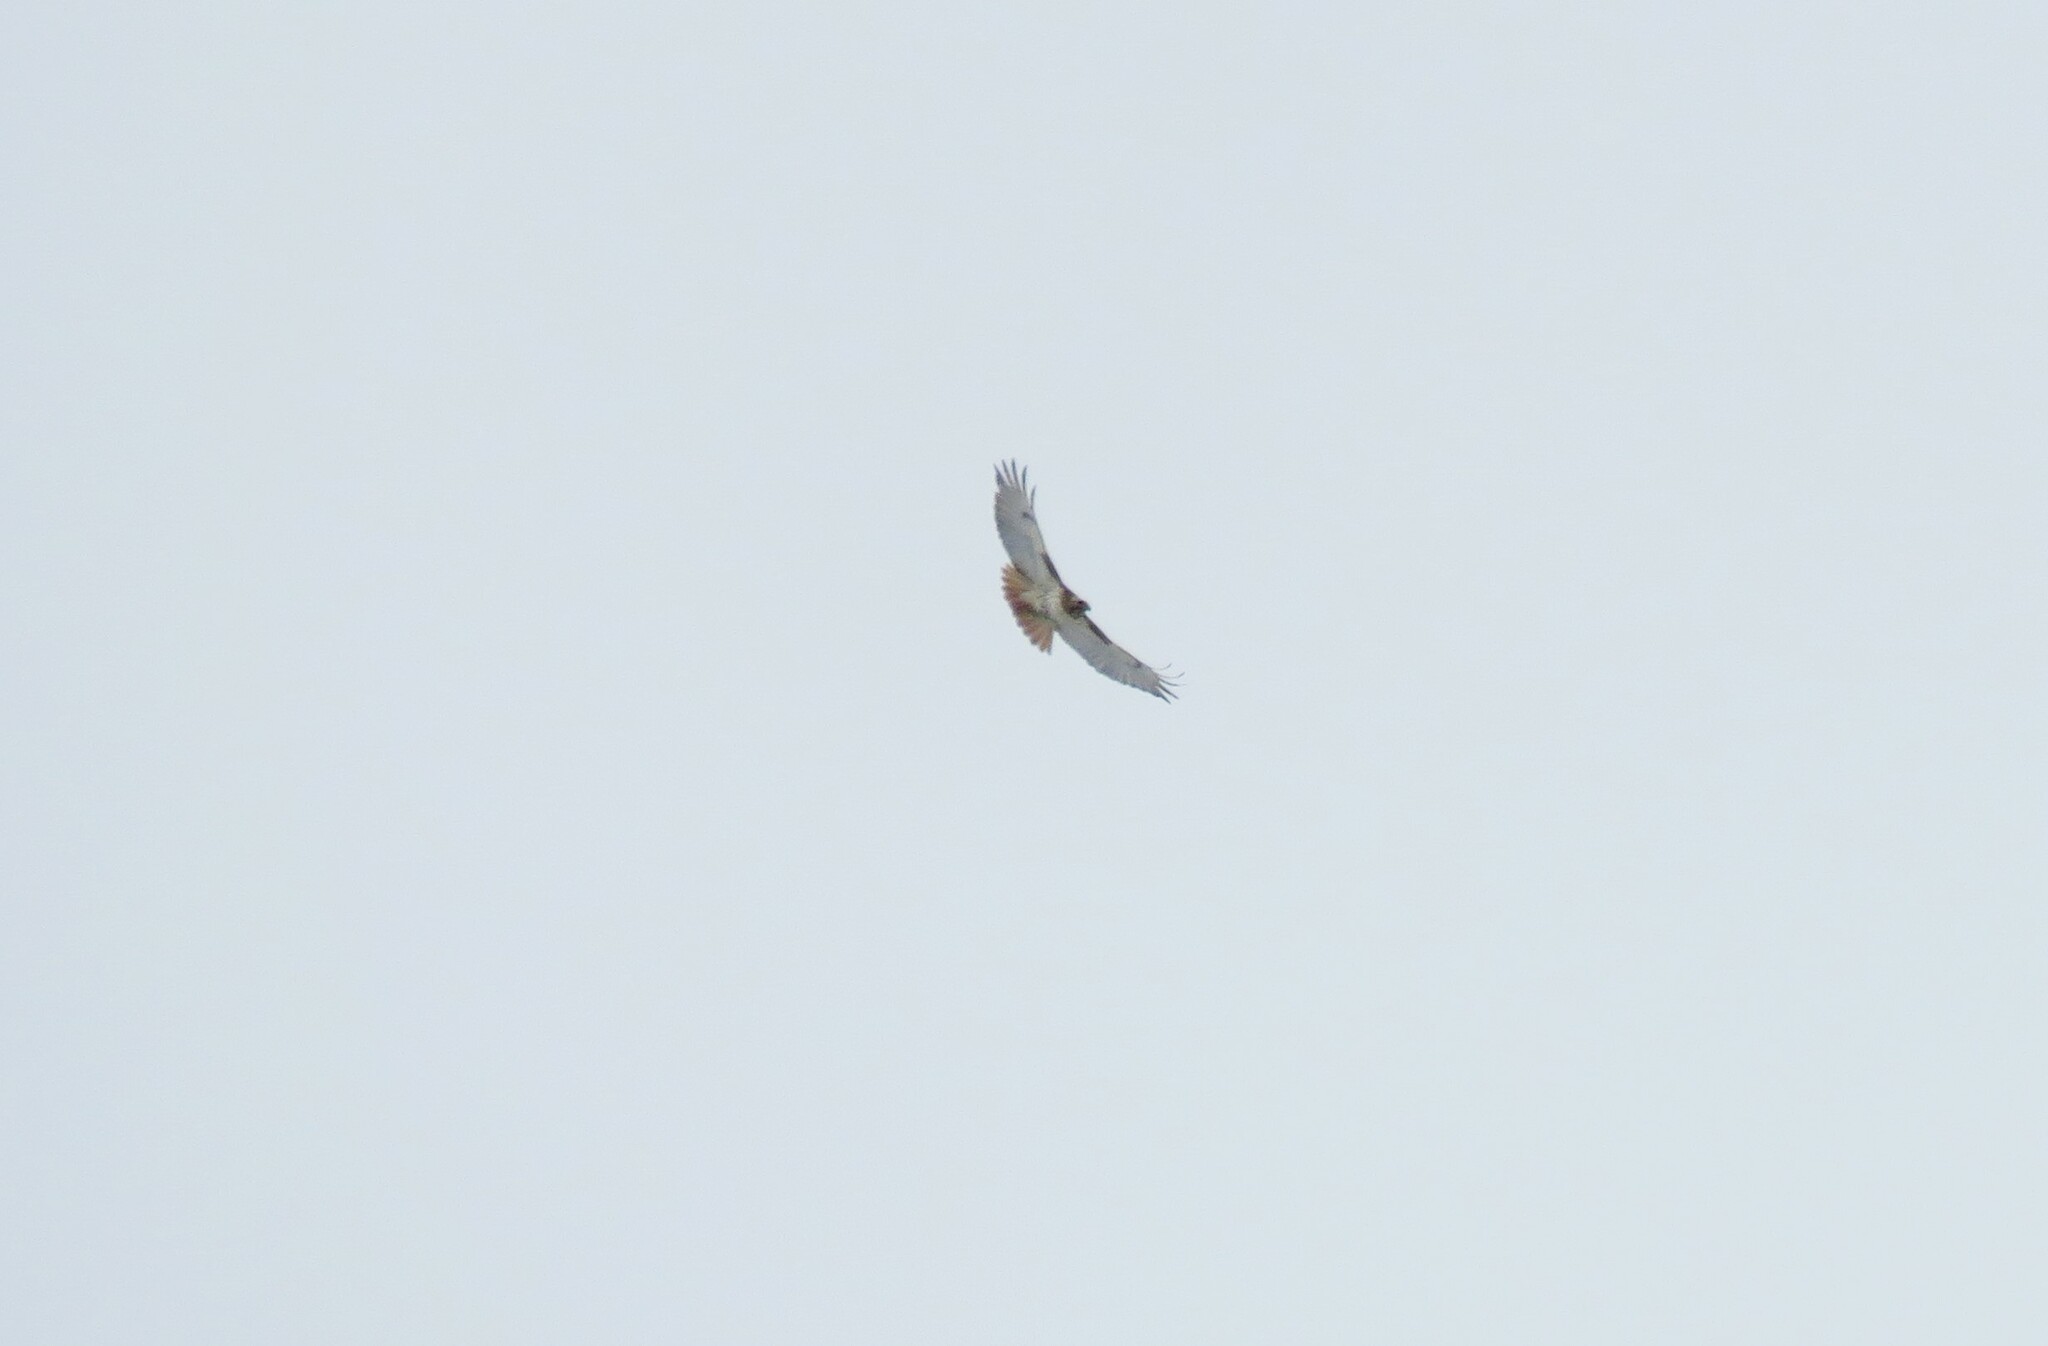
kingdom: Animalia
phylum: Chordata
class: Aves
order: Accipitriformes
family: Accipitridae
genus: Buteo
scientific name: Buteo jamaicensis
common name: Red-tailed hawk
